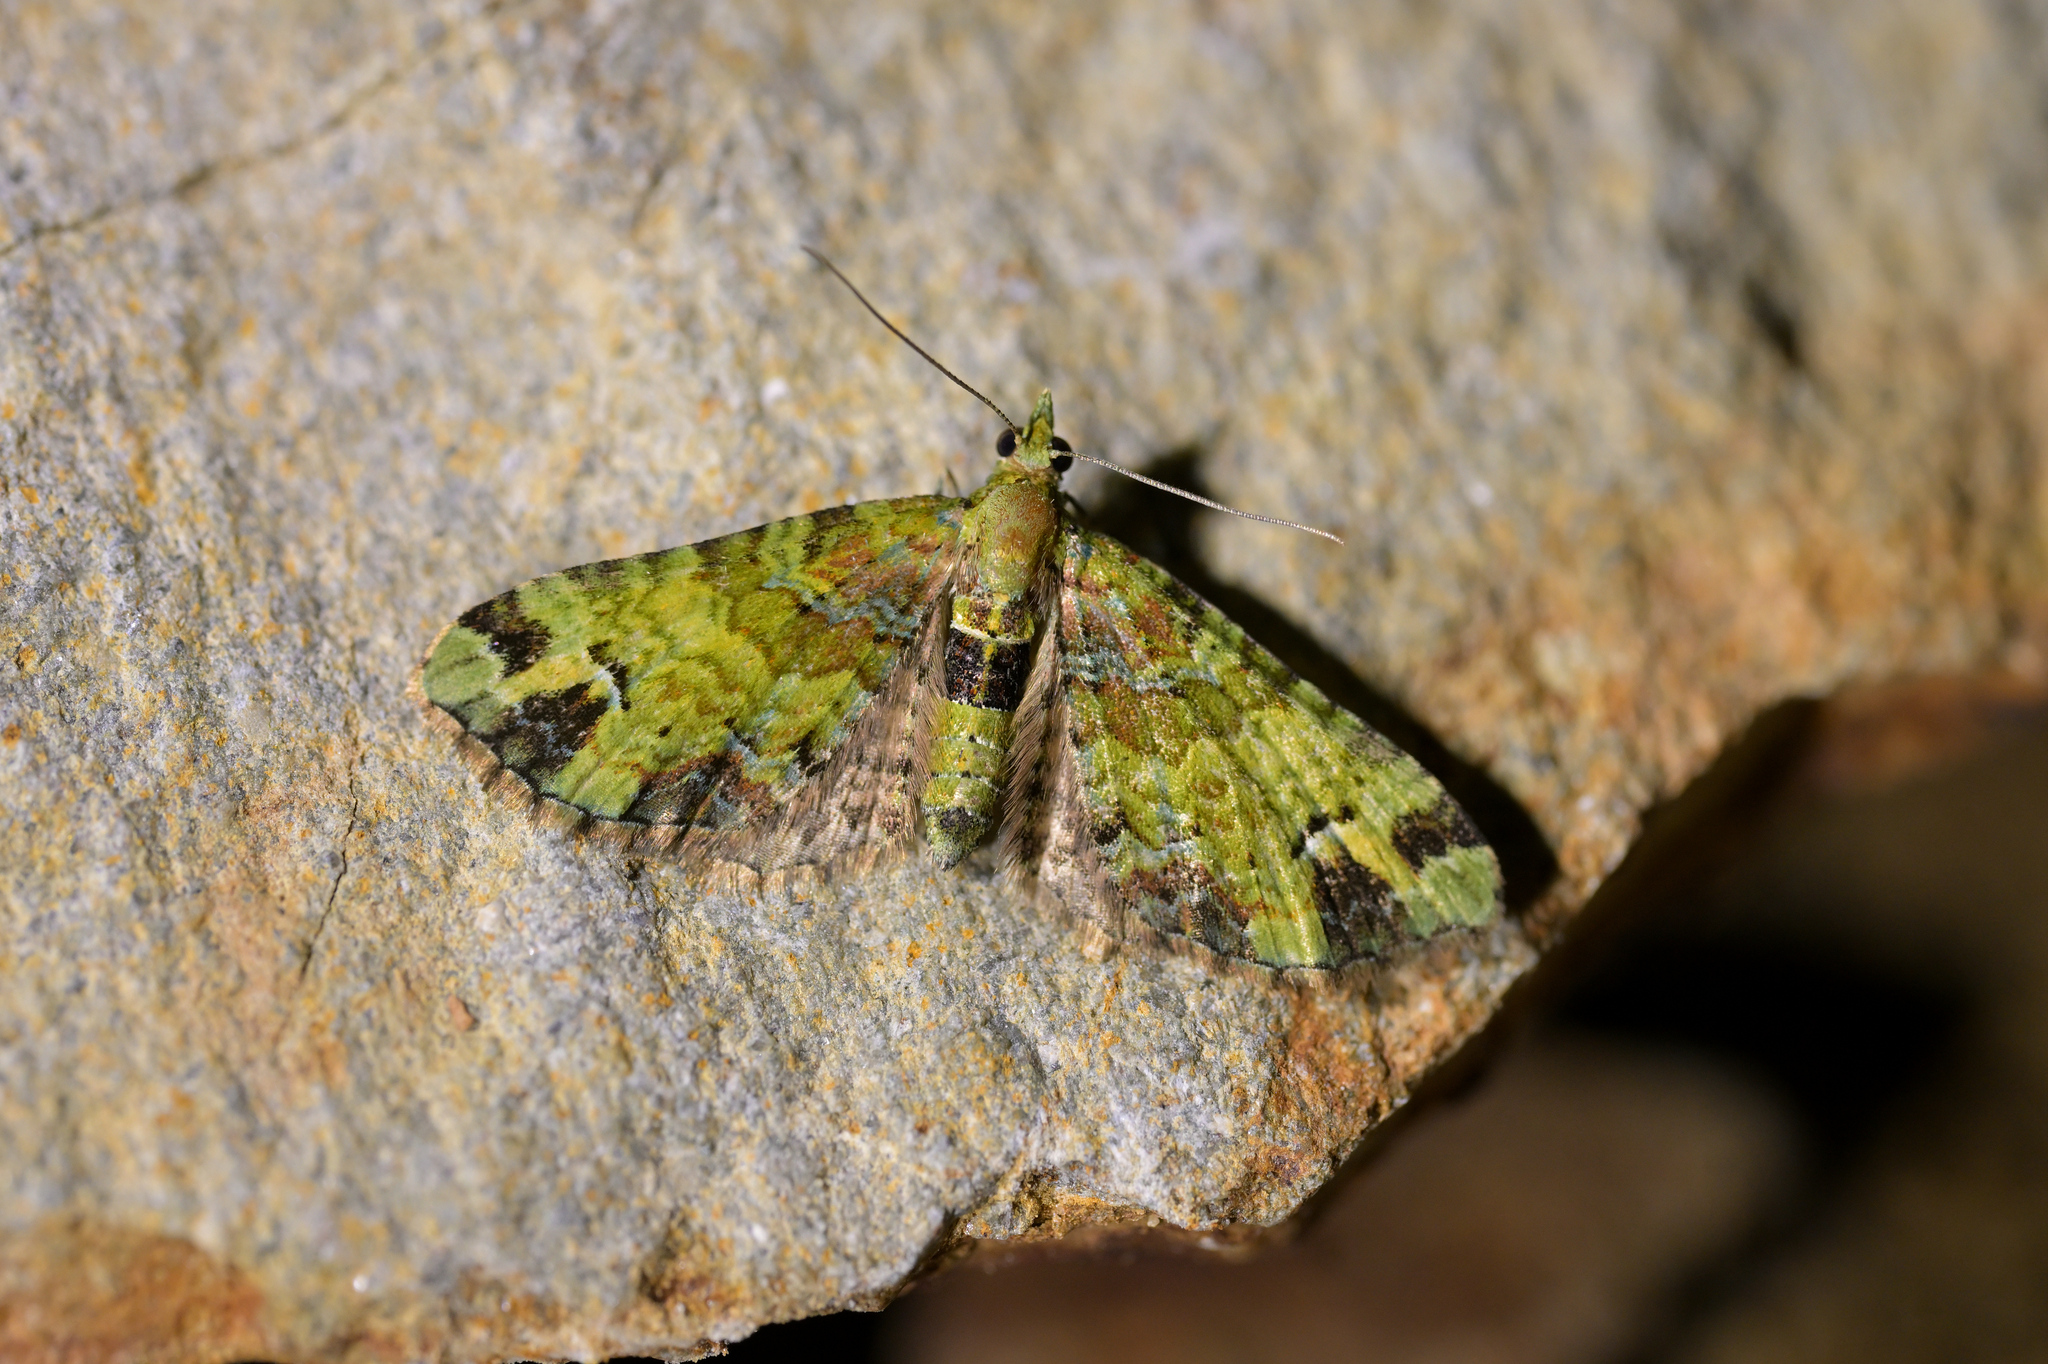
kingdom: Animalia
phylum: Arthropoda
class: Insecta
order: Lepidoptera
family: Geometridae
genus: Pasiphila
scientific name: Pasiphila malachita
